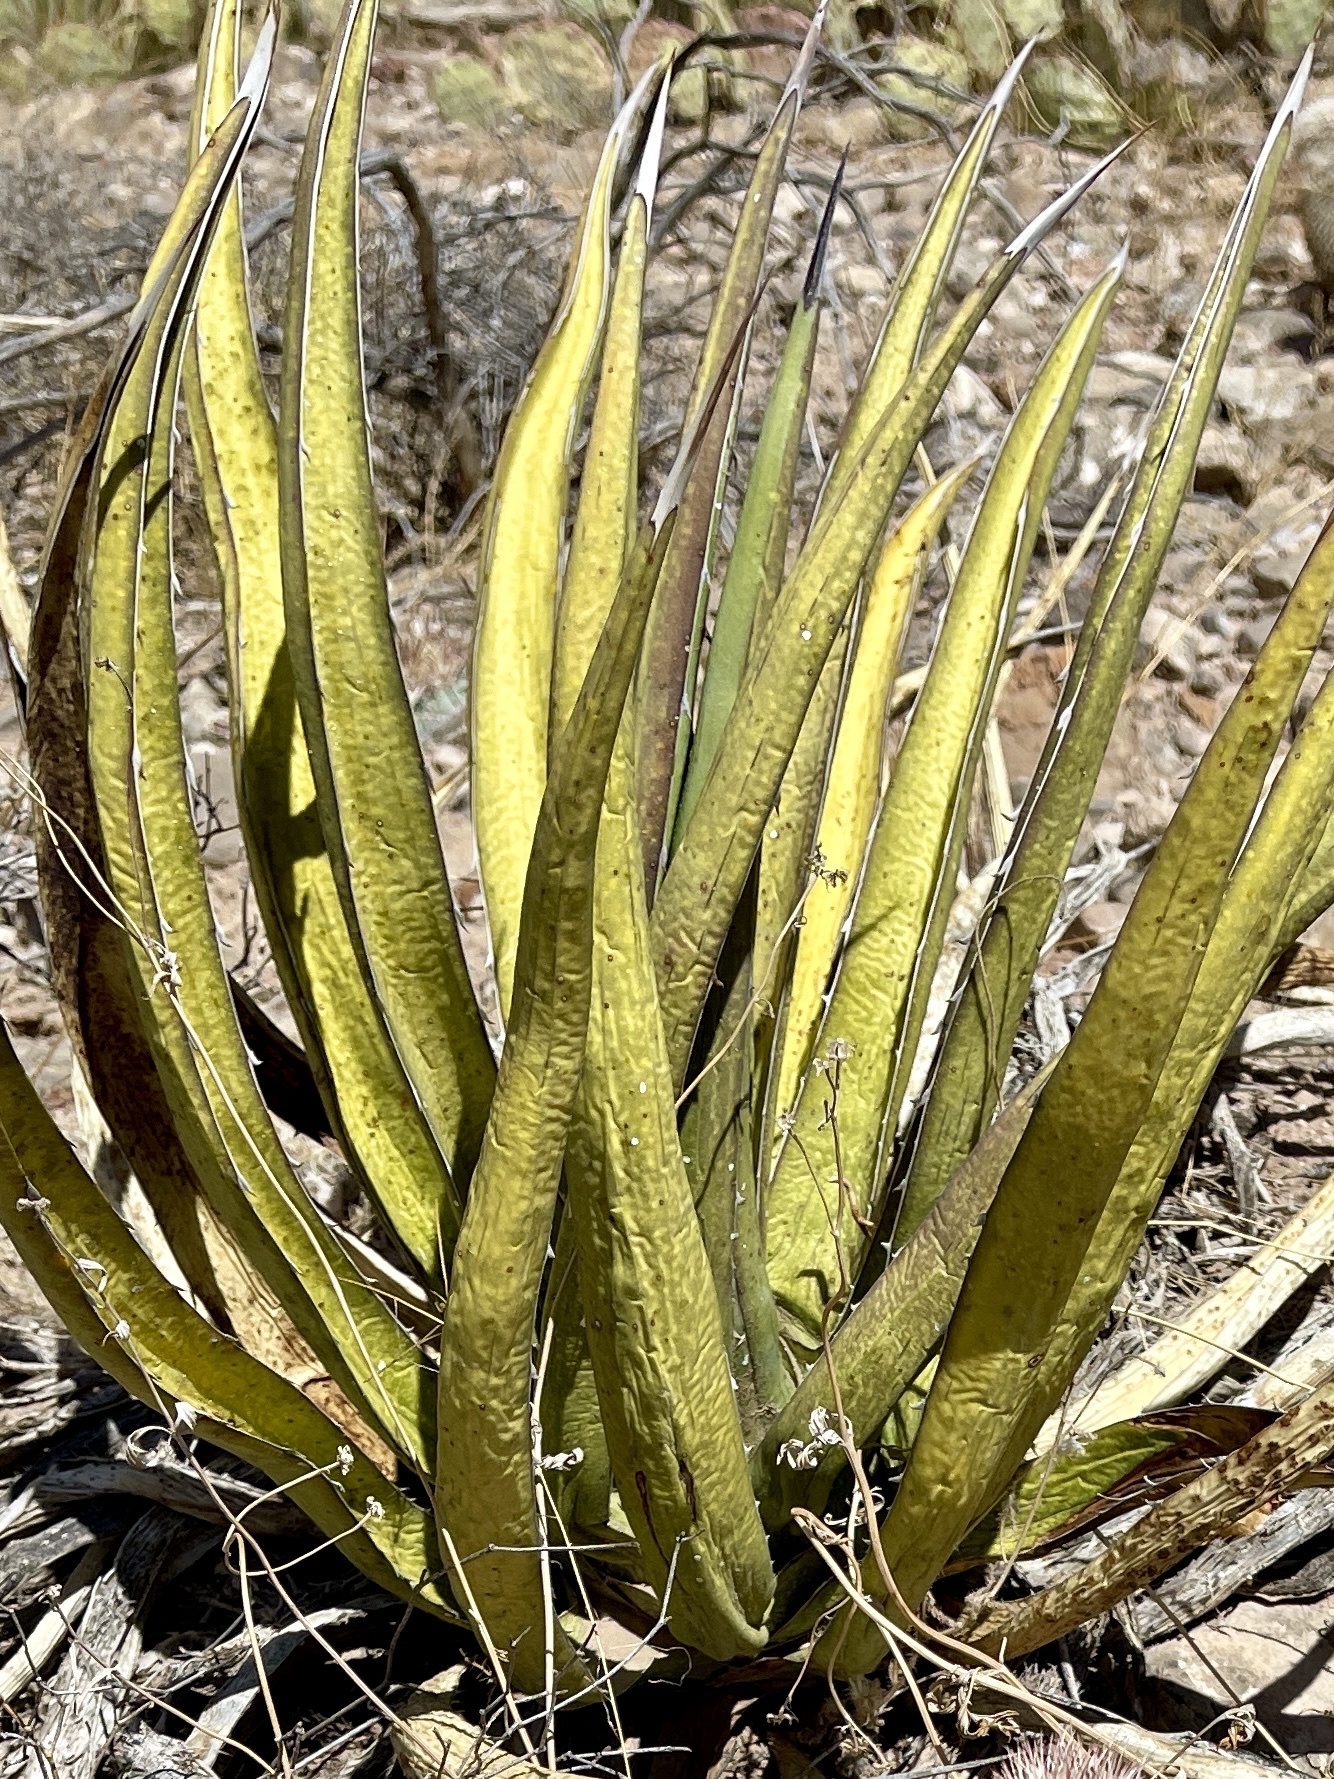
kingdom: Plantae
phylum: Tracheophyta
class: Liliopsida
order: Asparagales
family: Asparagaceae
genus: Agave
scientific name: Agave lechuguilla
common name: Lecheguilla agave
